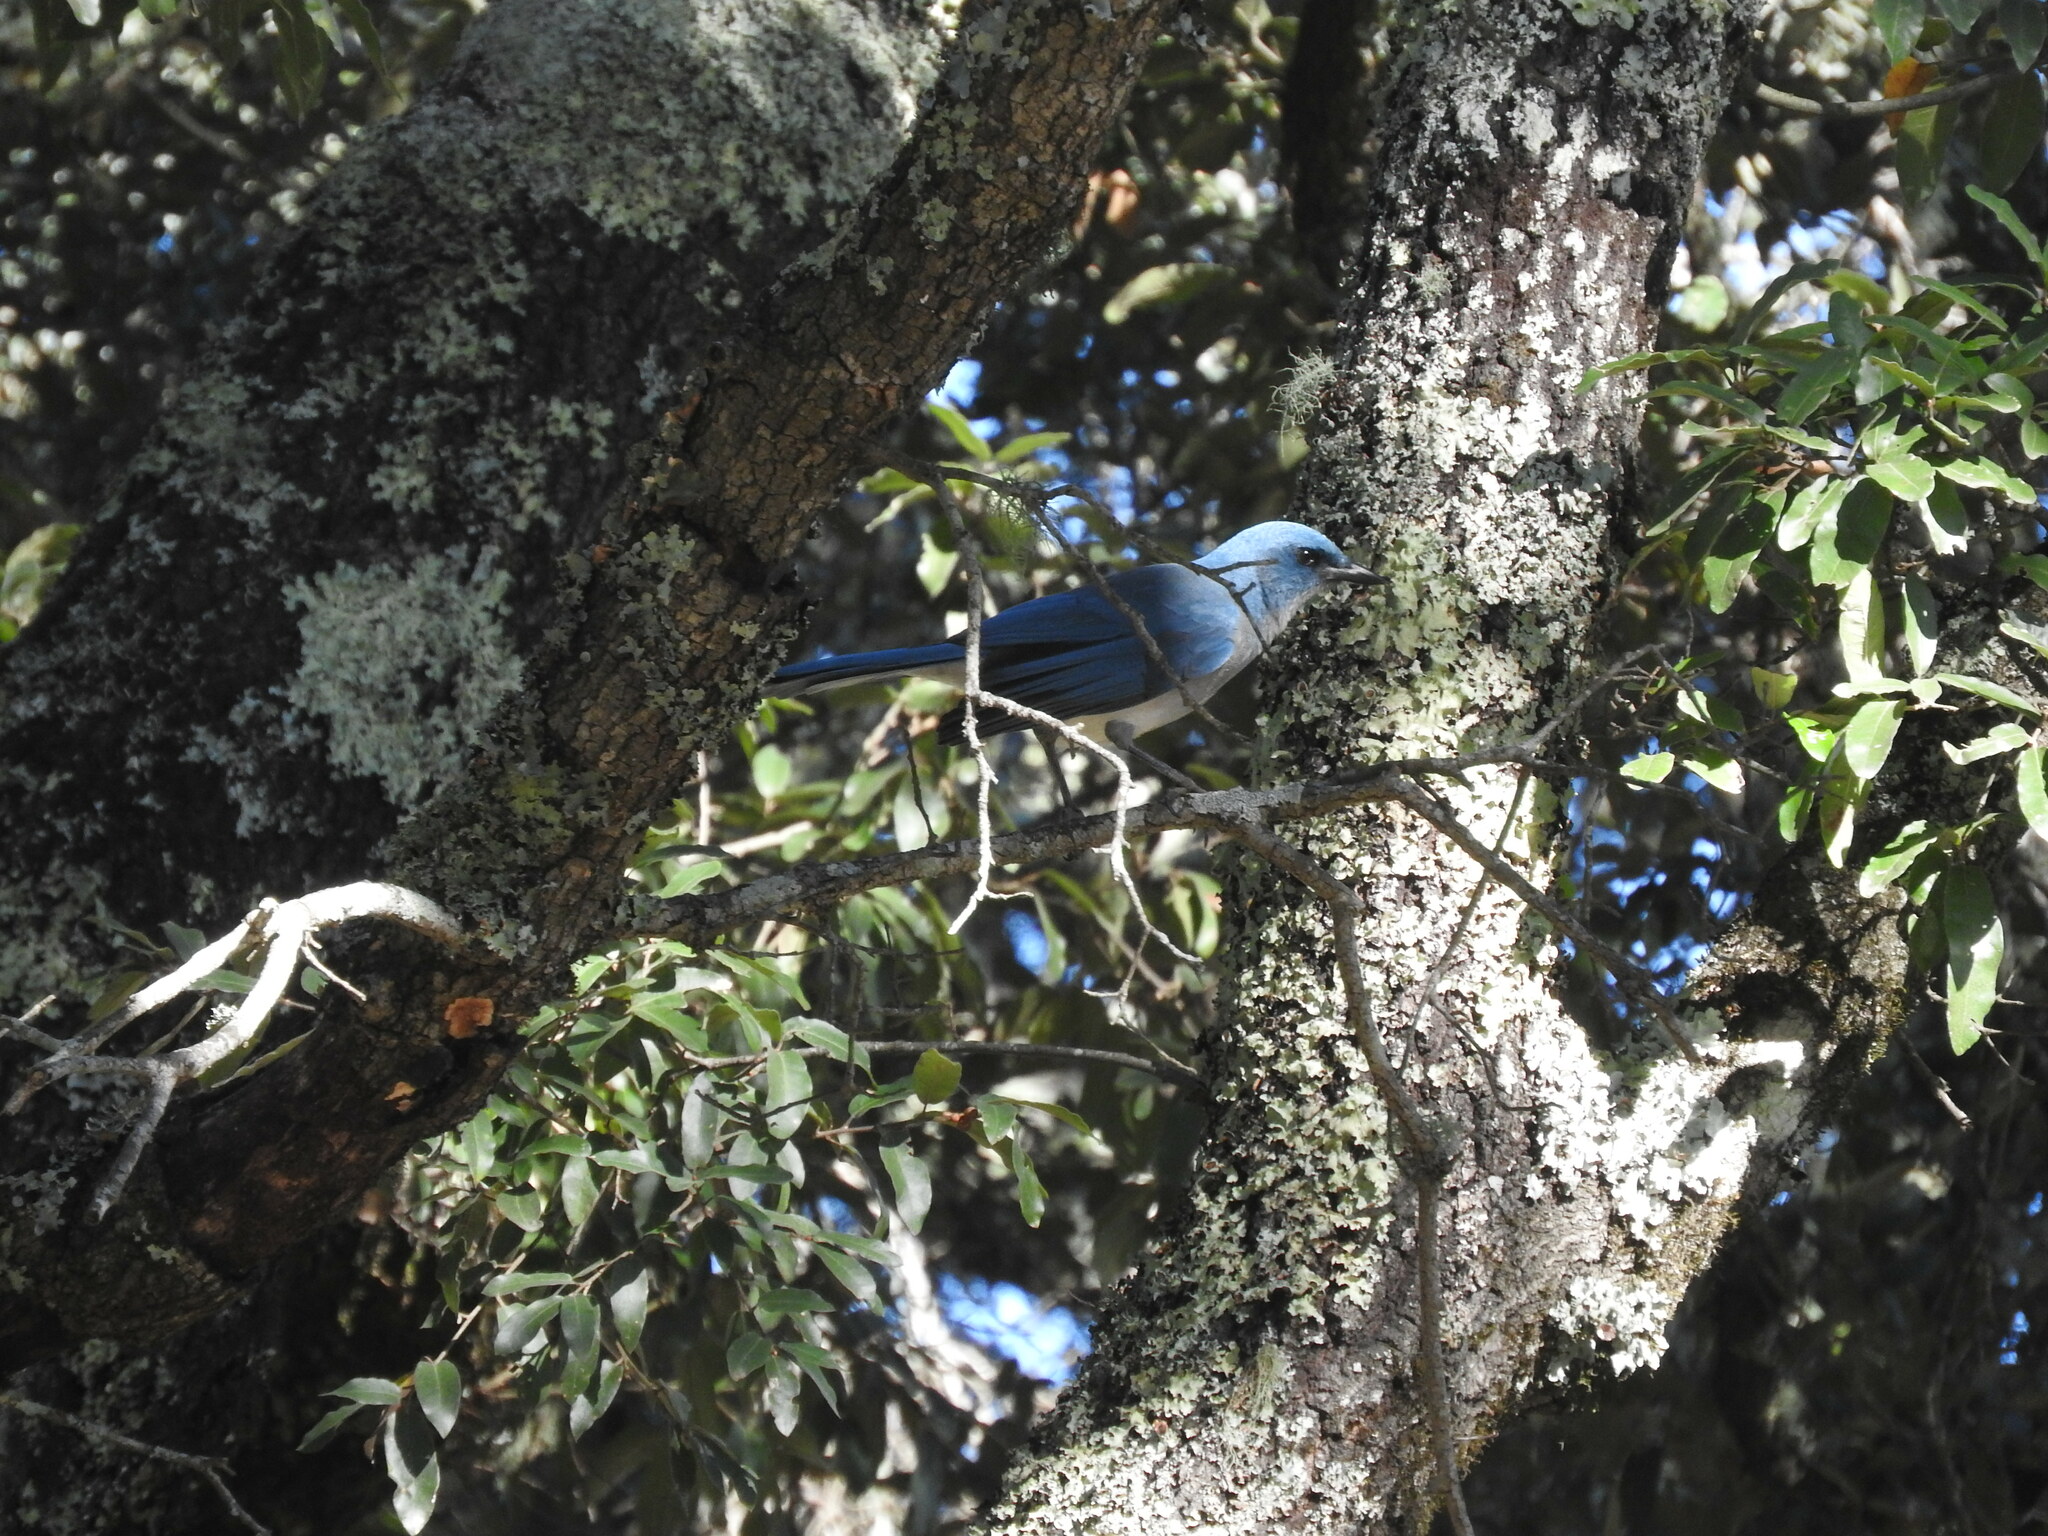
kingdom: Animalia
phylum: Chordata
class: Aves
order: Passeriformes
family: Corvidae
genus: Aphelocoma
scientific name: Aphelocoma wollweberi
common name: Mexican jay
